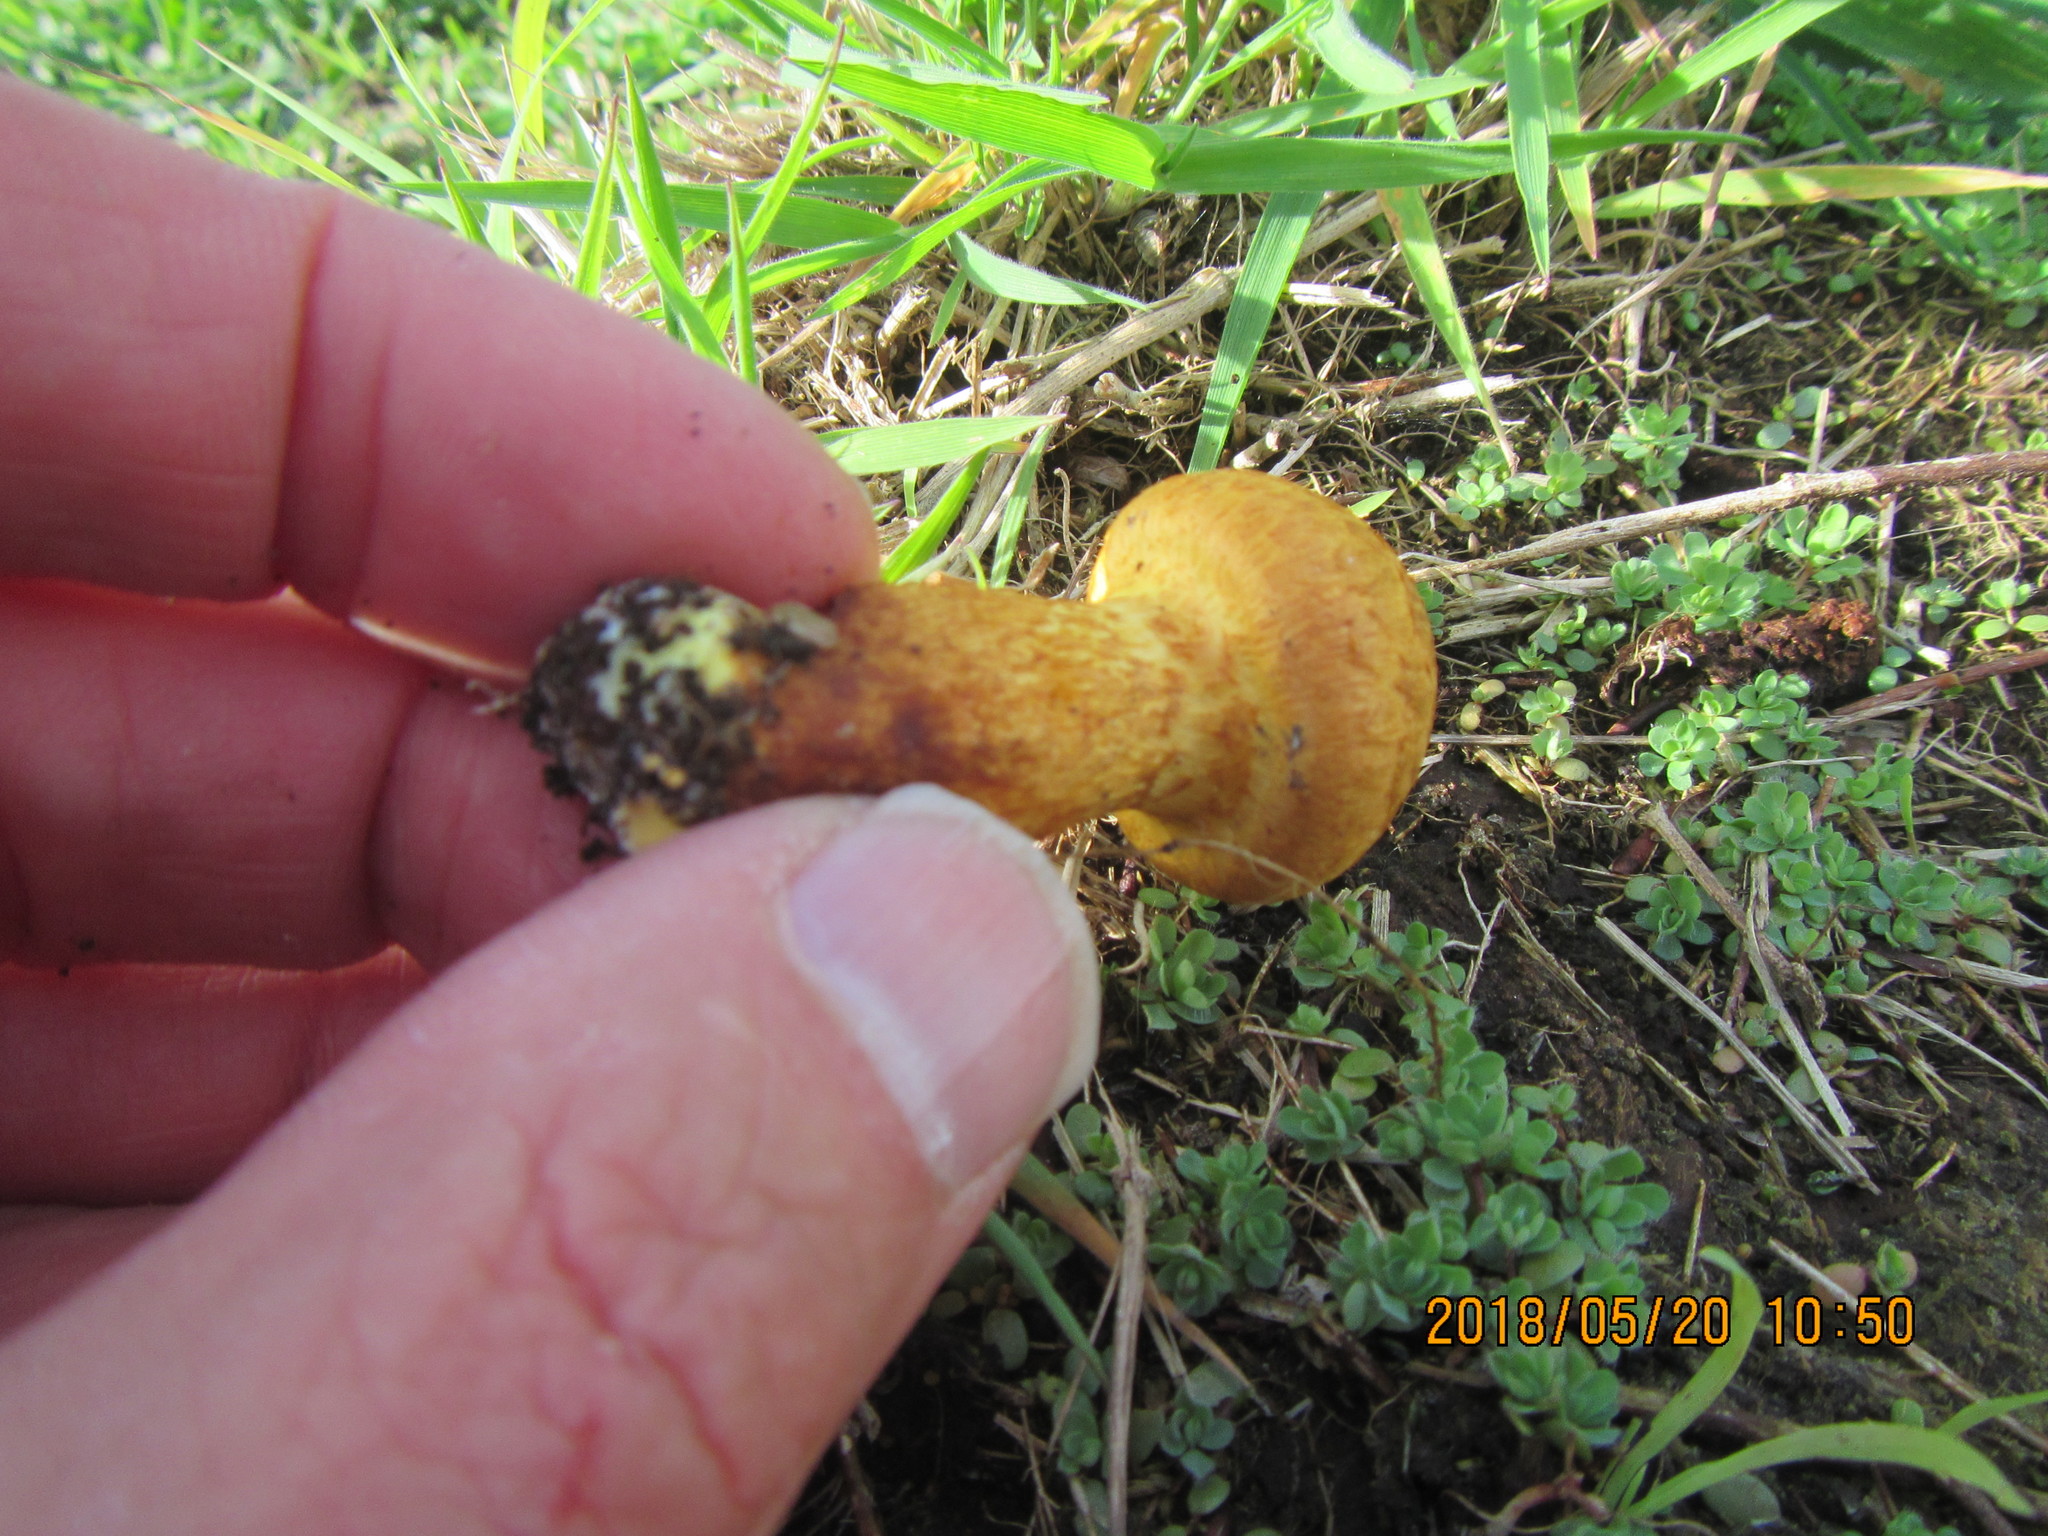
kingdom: Fungi
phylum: Basidiomycota
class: Agaricomycetes
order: Agaricales
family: Hymenogastraceae
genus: Gymnopilus
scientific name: Gymnopilus junonius
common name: Spectacular rustgill
